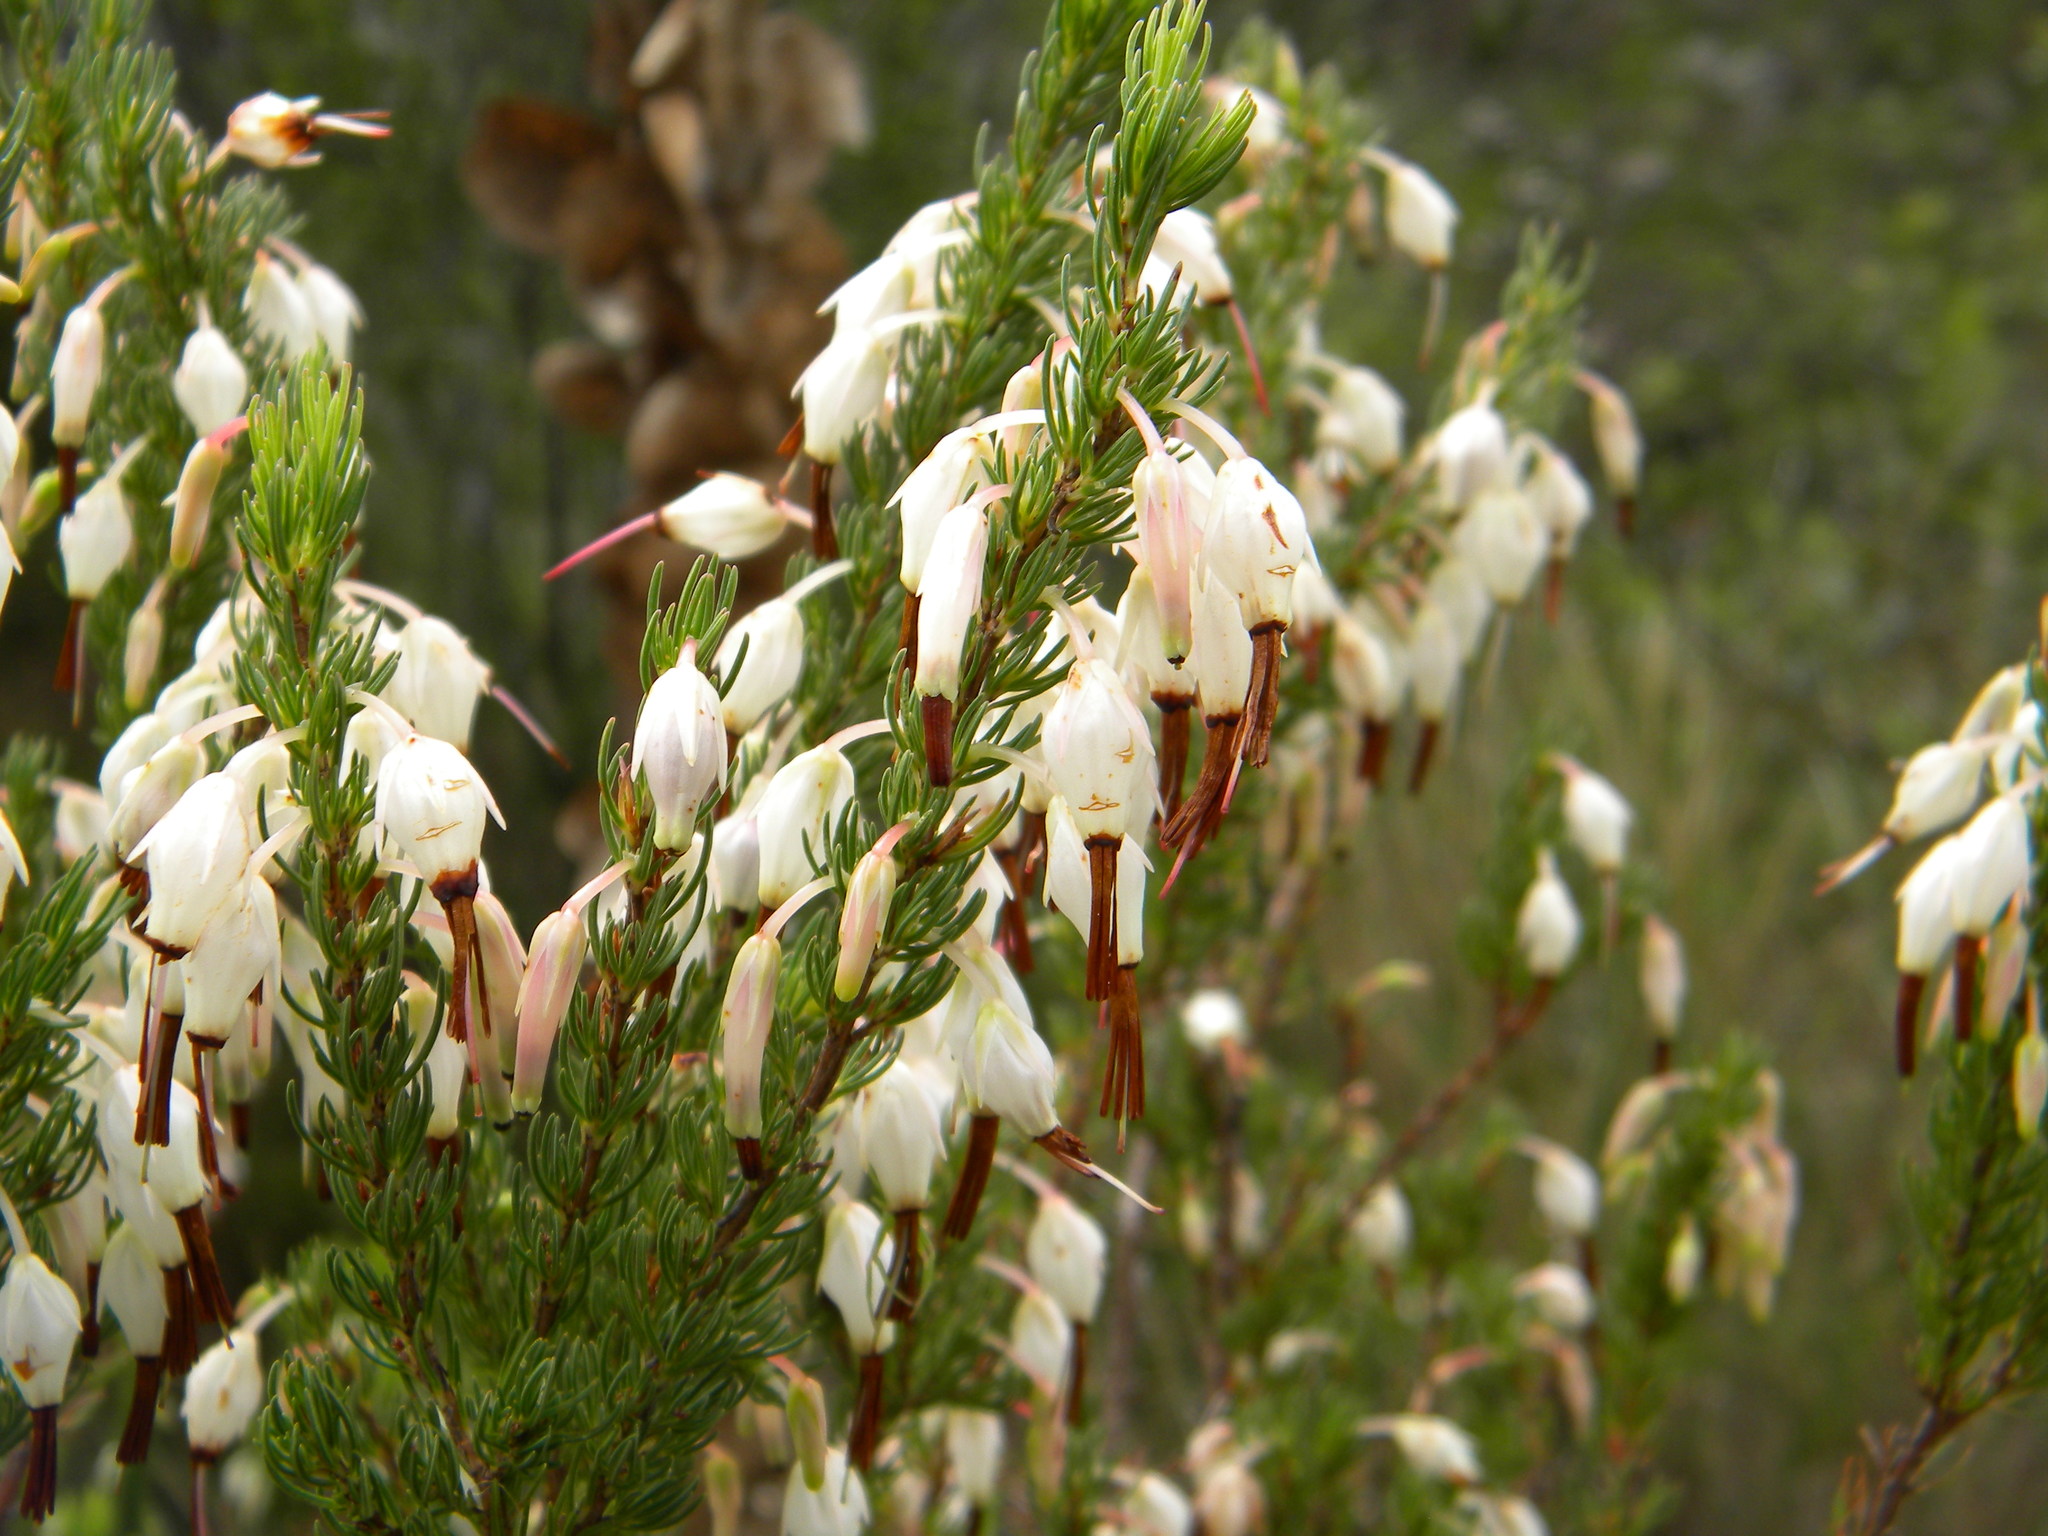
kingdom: Plantae
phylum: Tracheophyta
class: Magnoliopsida
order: Ericales
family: Ericaceae
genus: Erica
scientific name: Erica plukenetii
